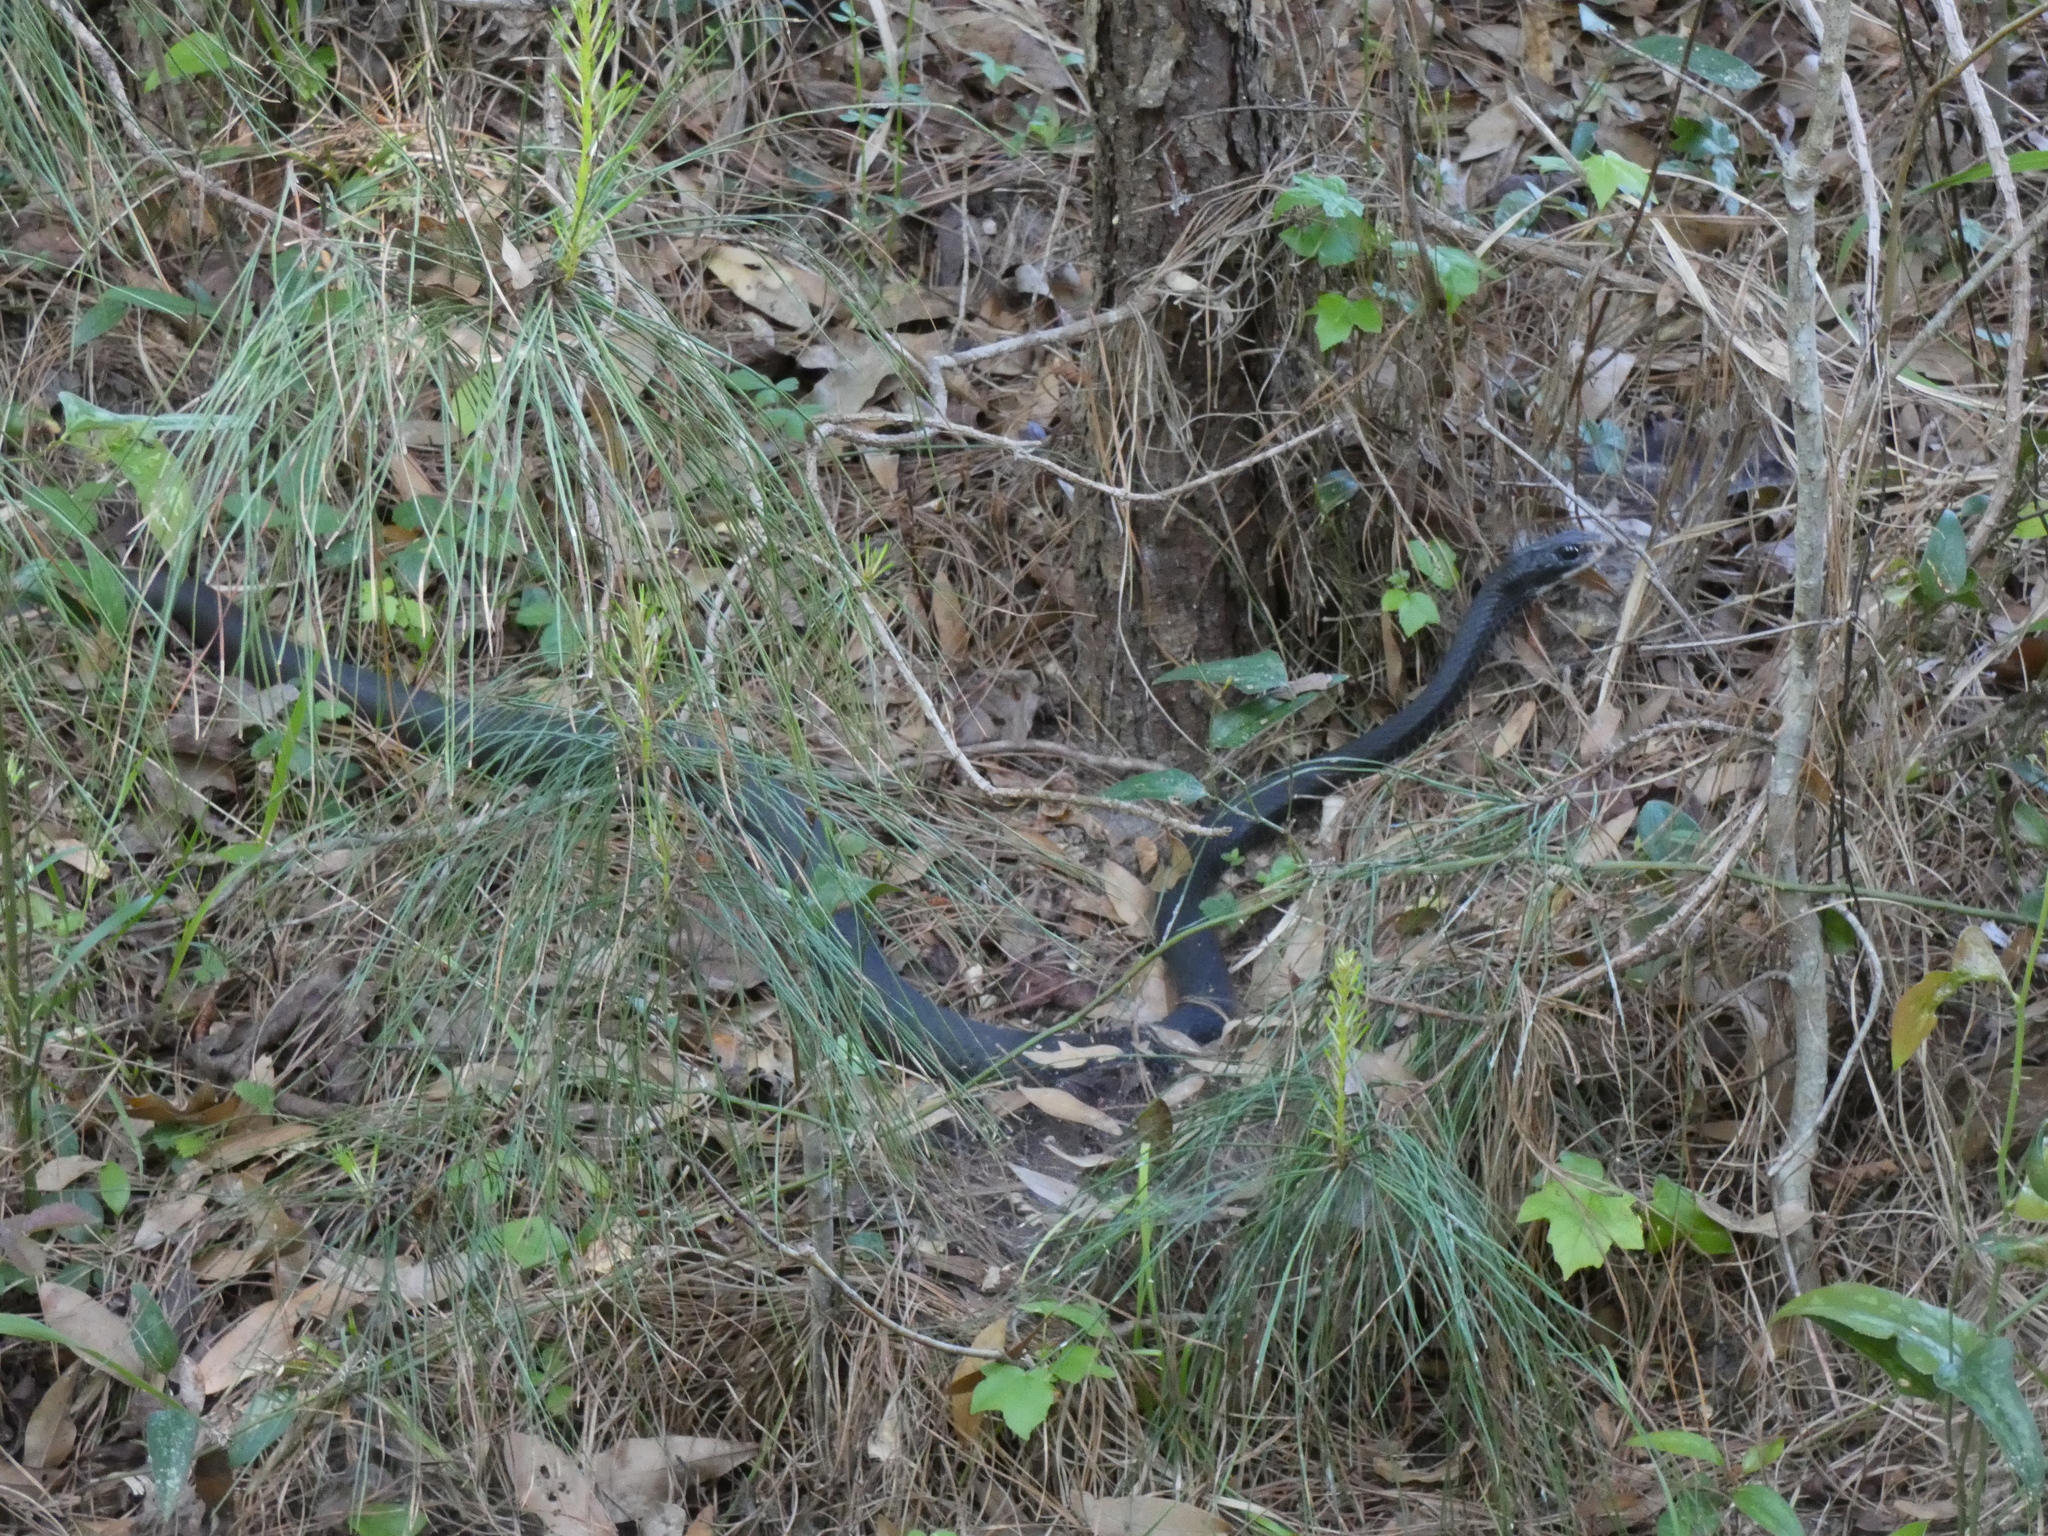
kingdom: Animalia
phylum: Chordata
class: Squamata
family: Colubridae
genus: Coluber
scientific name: Coluber constrictor
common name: Eastern racer
